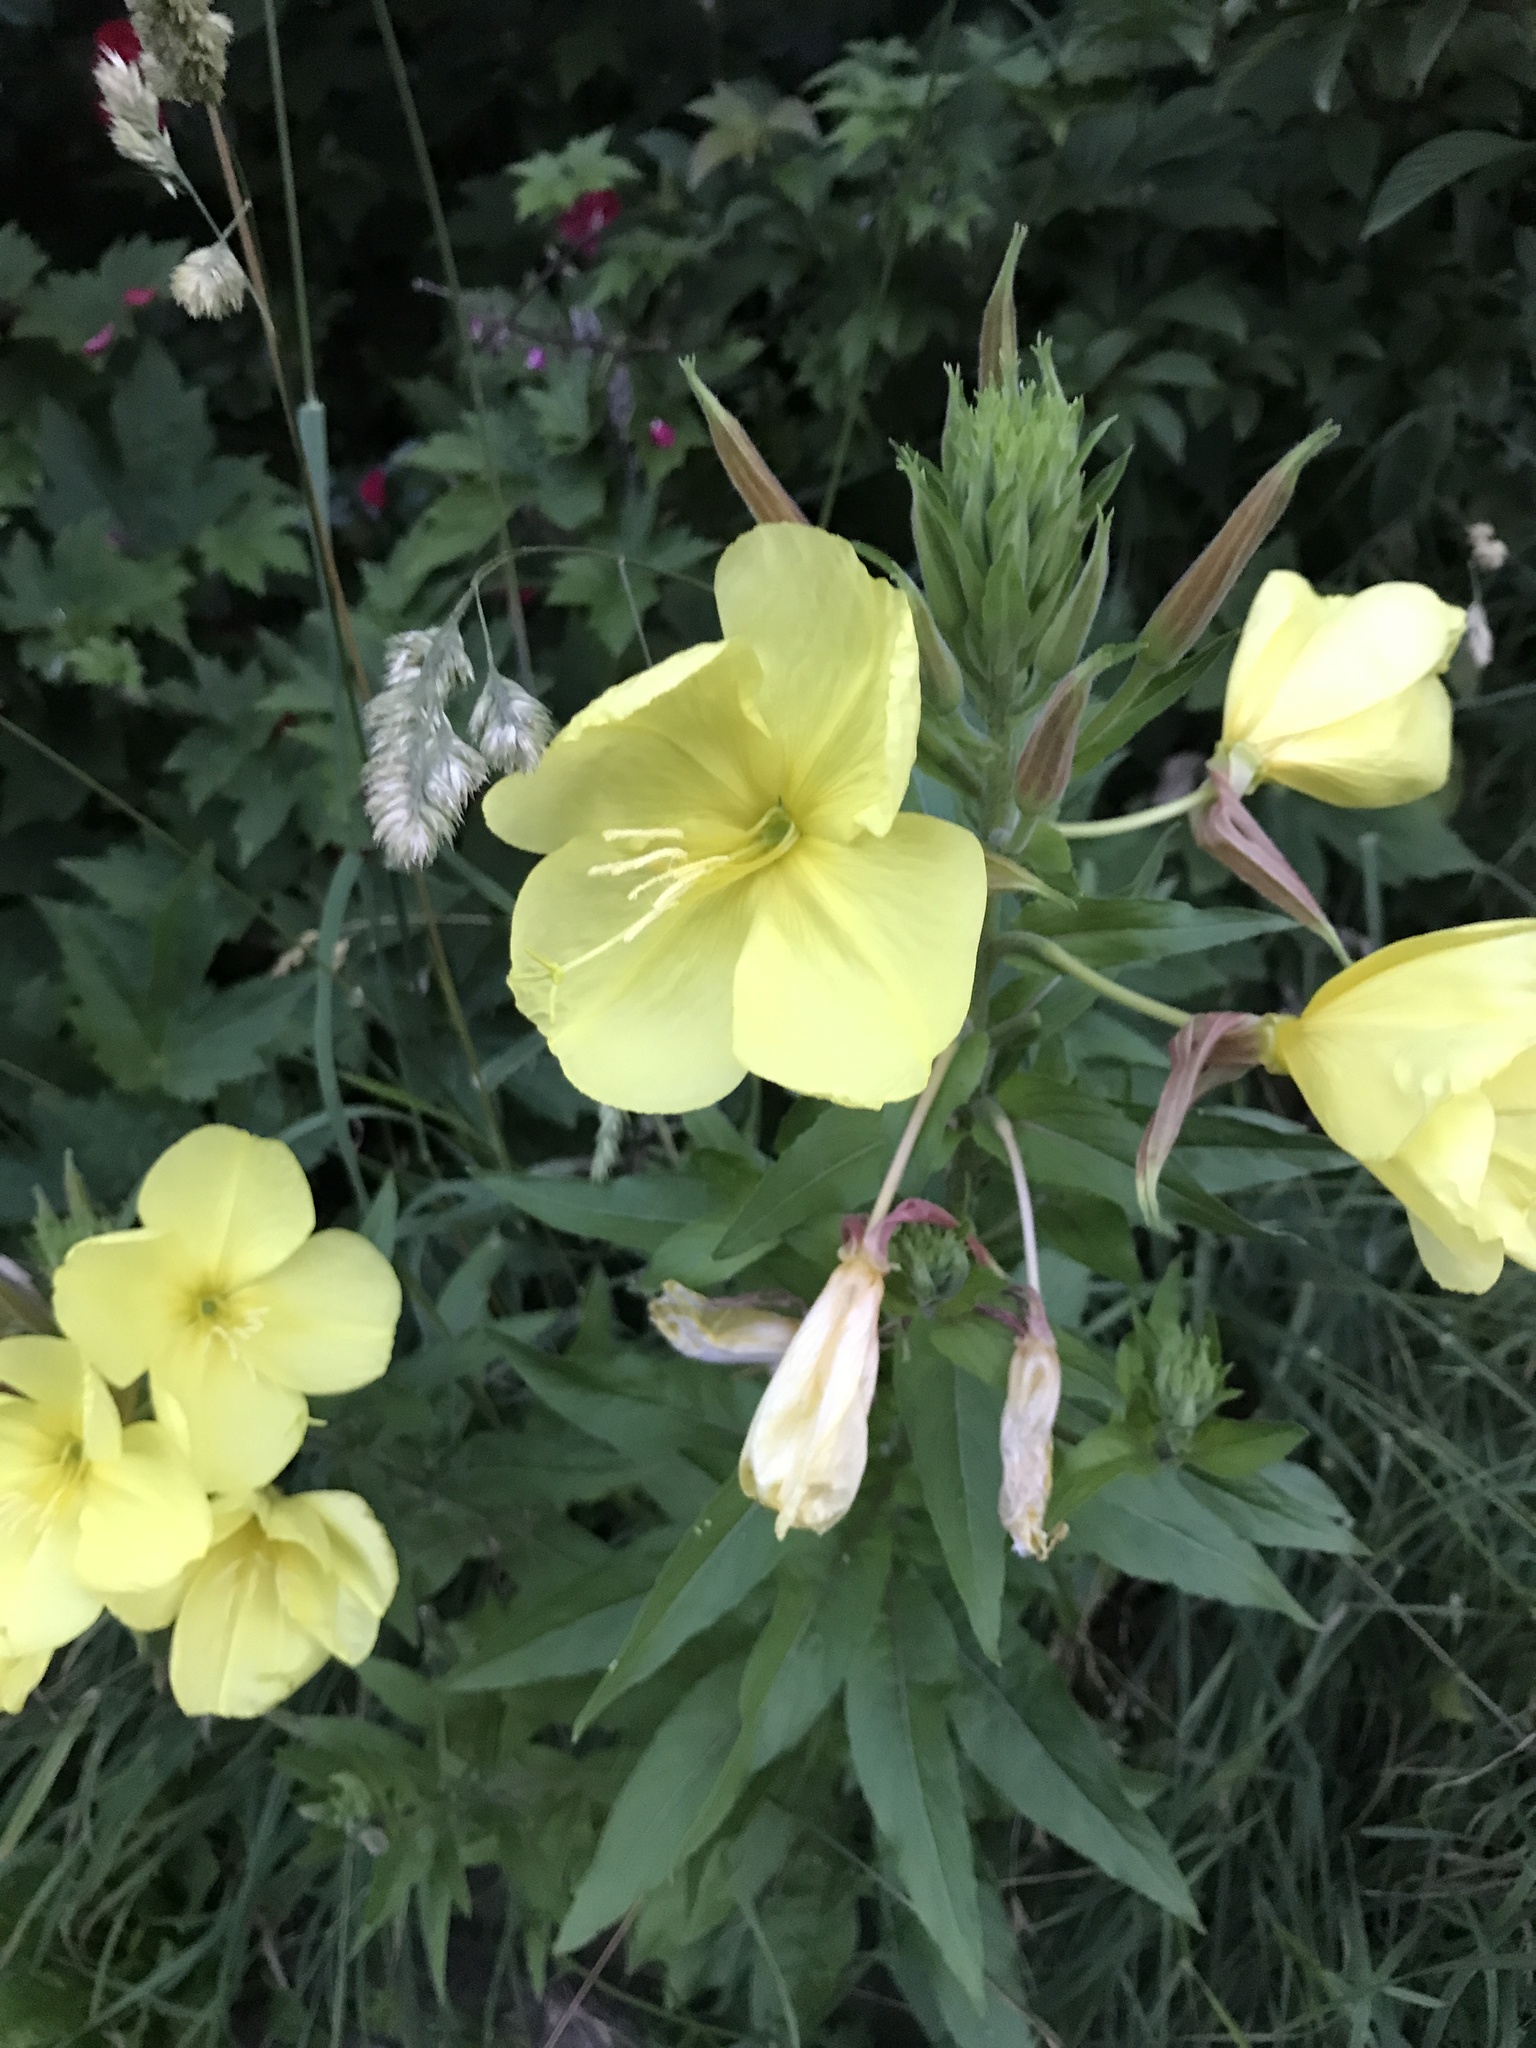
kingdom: Plantae
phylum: Tracheophyta
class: Magnoliopsida
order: Myrtales
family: Onagraceae
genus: Oenothera
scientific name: Oenothera glazioviana
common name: Large-flowered evening-primrose
